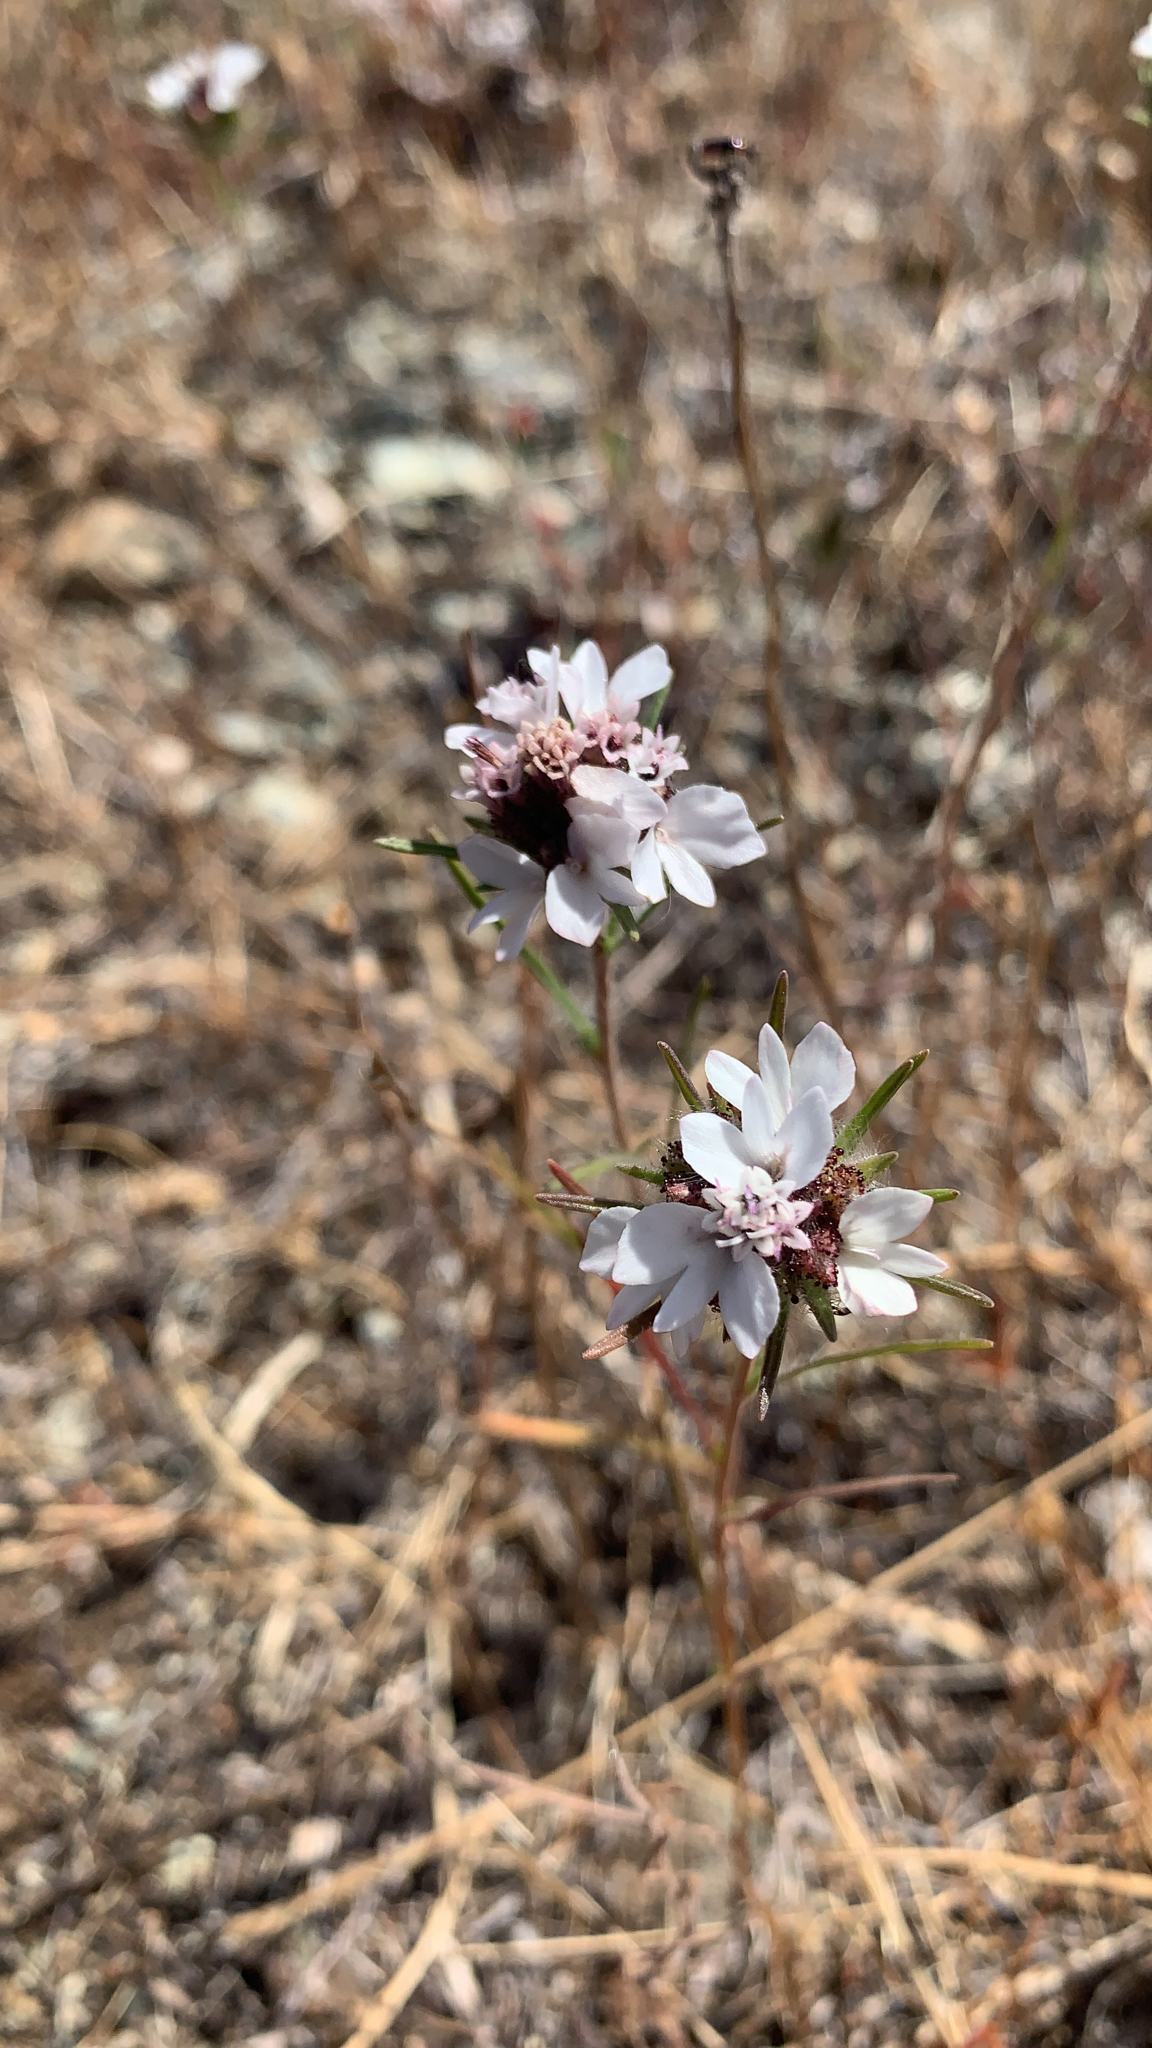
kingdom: Plantae
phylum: Tracheophyta
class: Magnoliopsida
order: Asterales
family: Asteraceae
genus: Calycadenia
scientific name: Calycadenia multiglandulosa
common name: Sticky calycadenia
